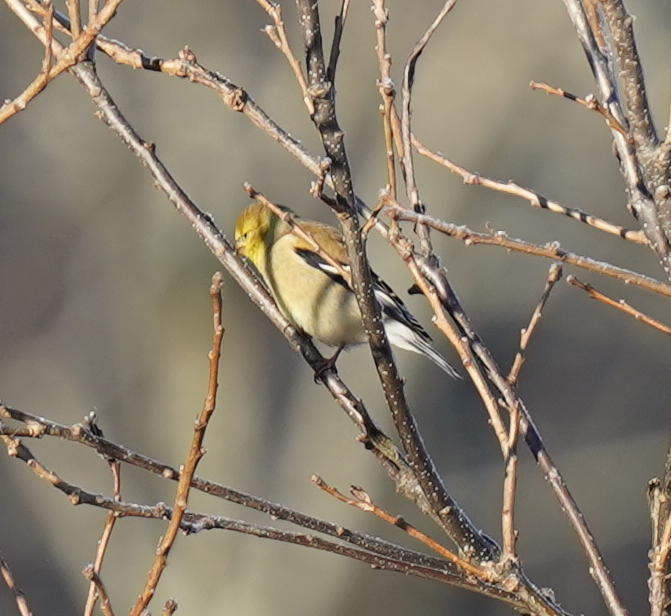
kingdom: Animalia
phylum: Chordata
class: Aves
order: Passeriformes
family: Fringillidae
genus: Spinus
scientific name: Spinus tristis
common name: American goldfinch
